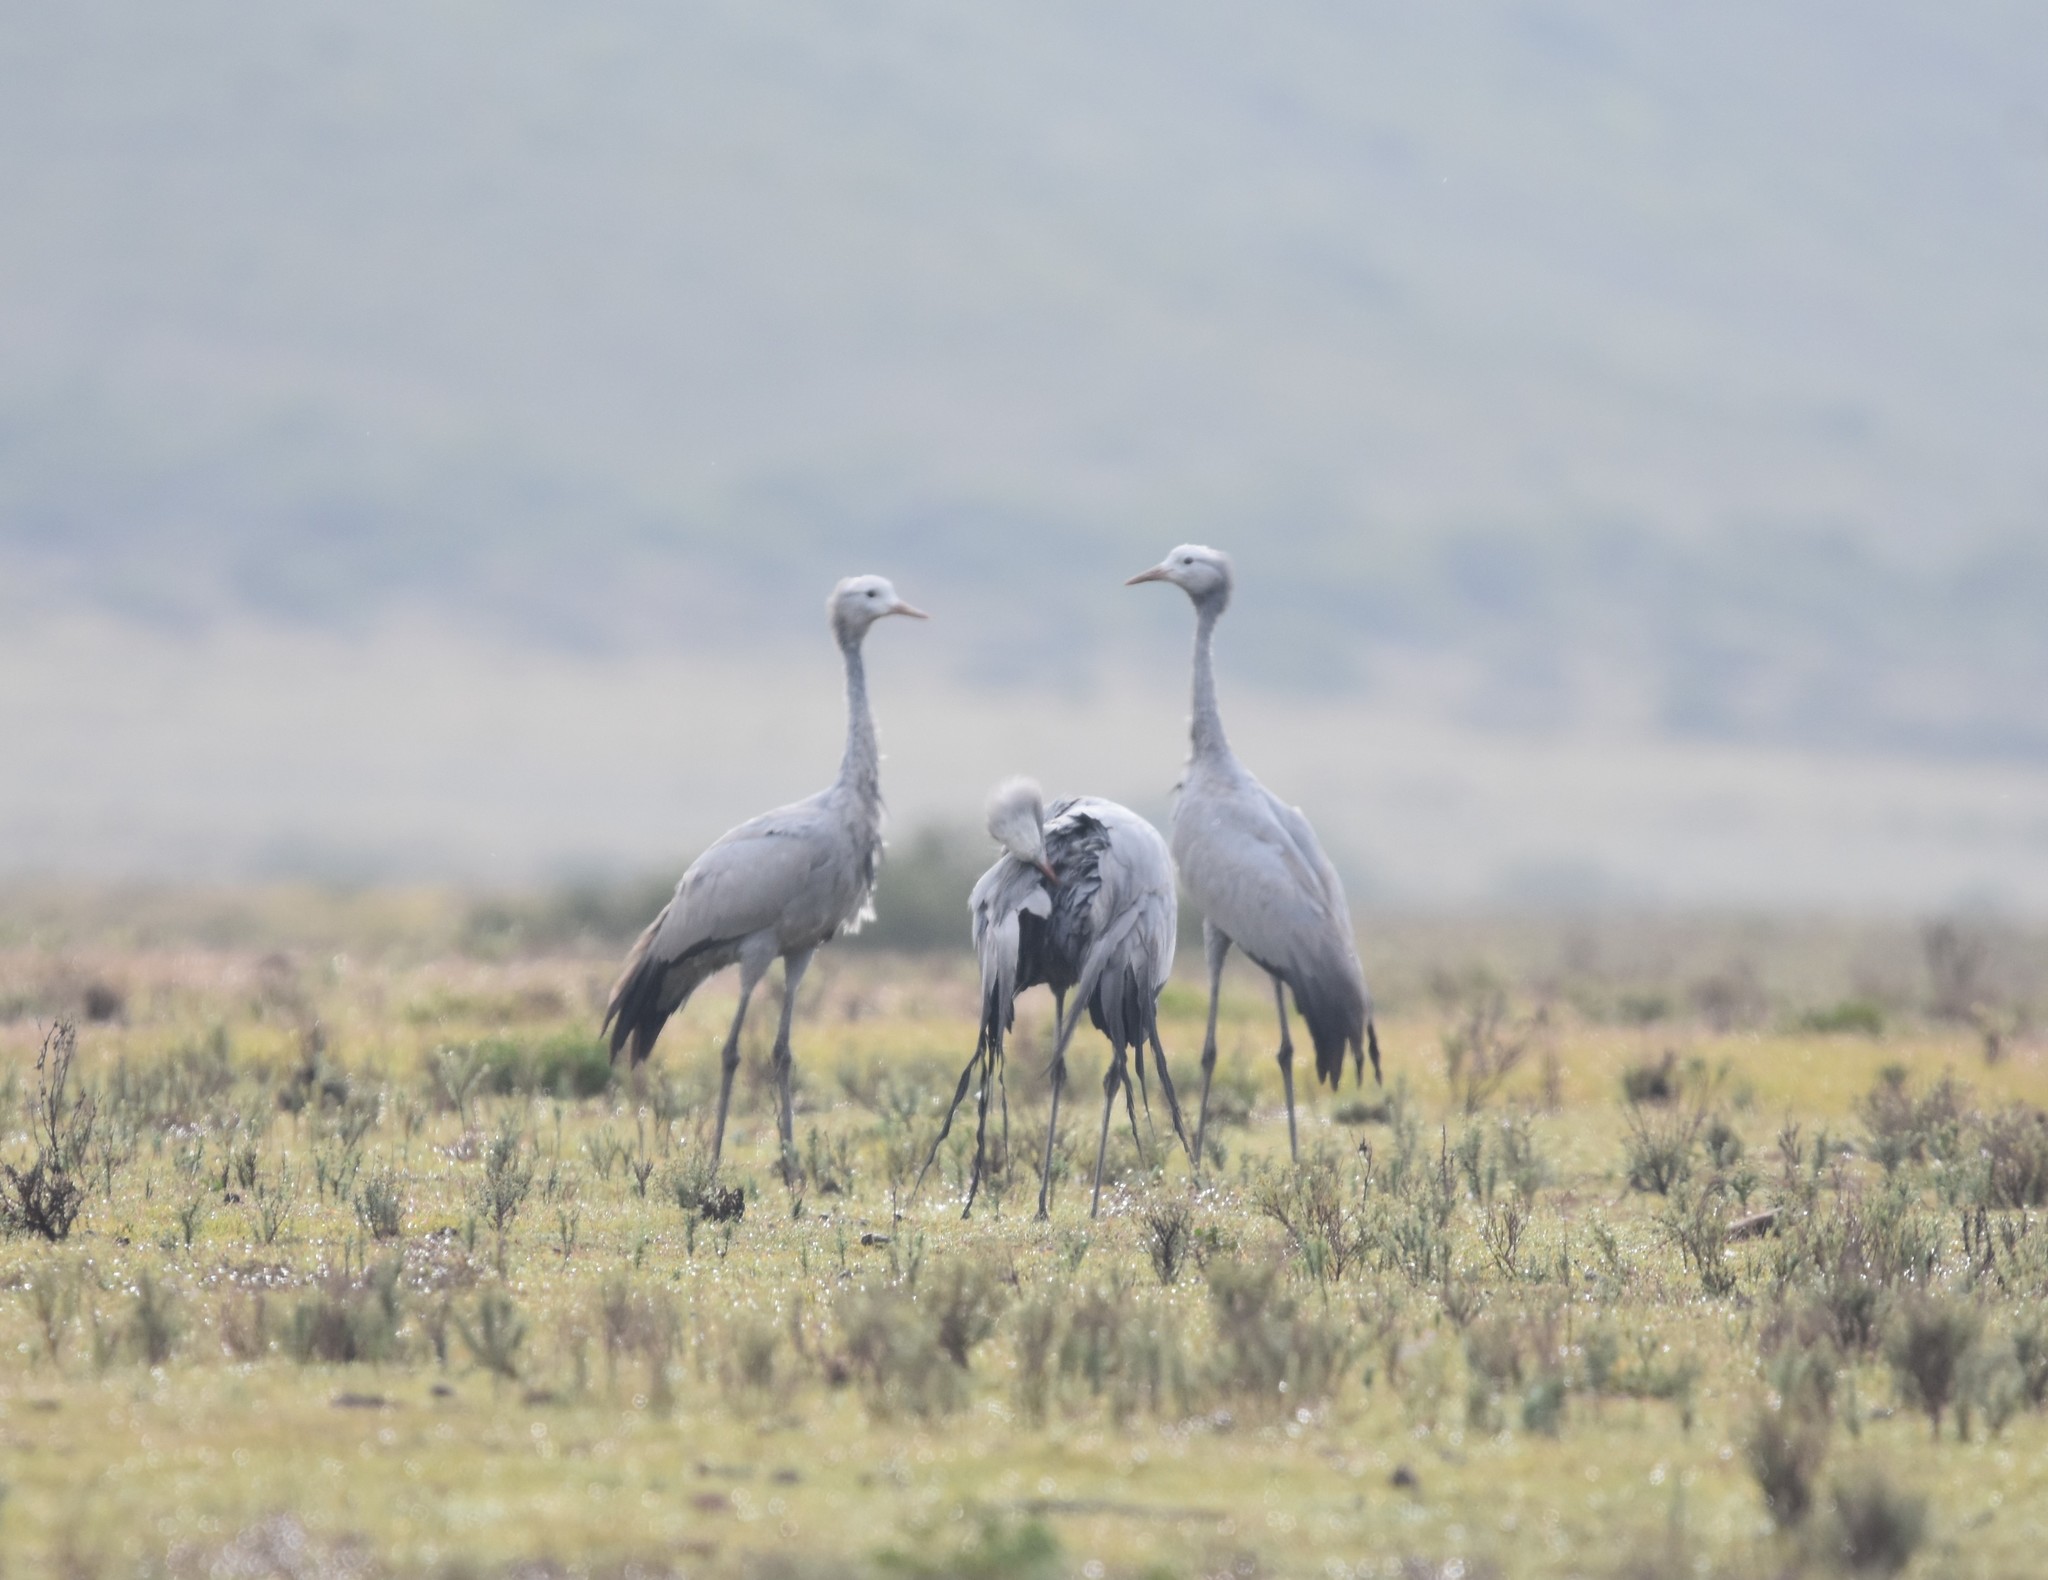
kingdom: Animalia
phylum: Chordata
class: Aves
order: Gruiformes
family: Gruidae
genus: Anthropoides
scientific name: Anthropoides paradiseus
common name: Blue crane
